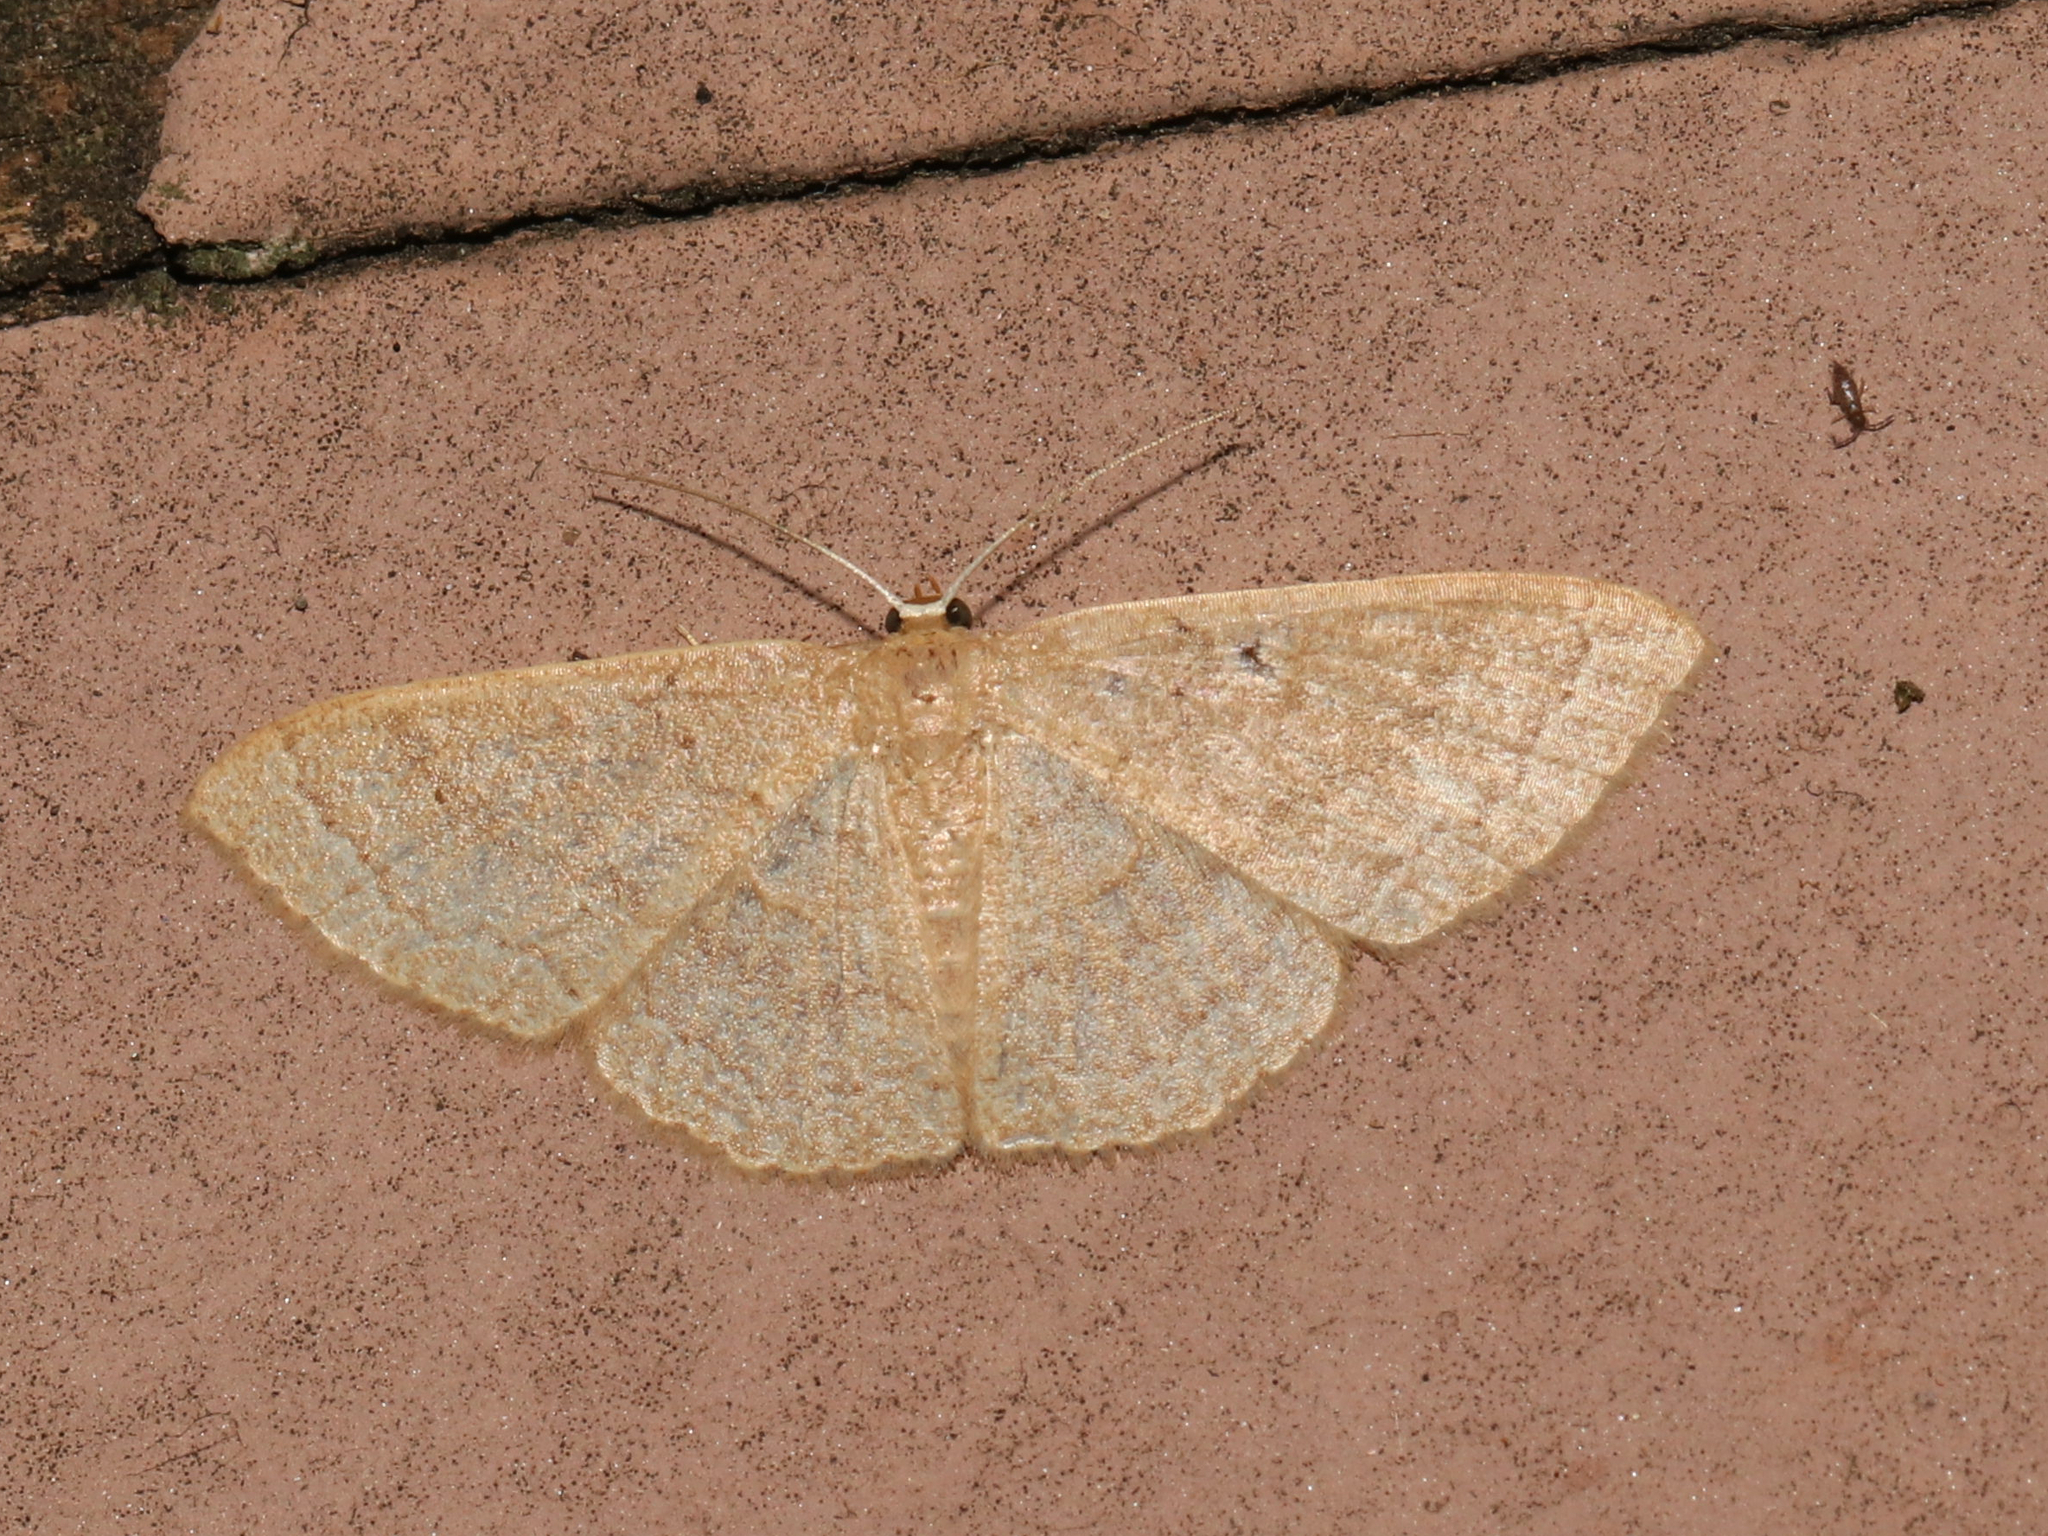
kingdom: Animalia
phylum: Arthropoda
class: Insecta
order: Lepidoptera
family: Geometridae
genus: Pleuroprucha
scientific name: Pleuroprucha insulsaria
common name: Common tan wave
